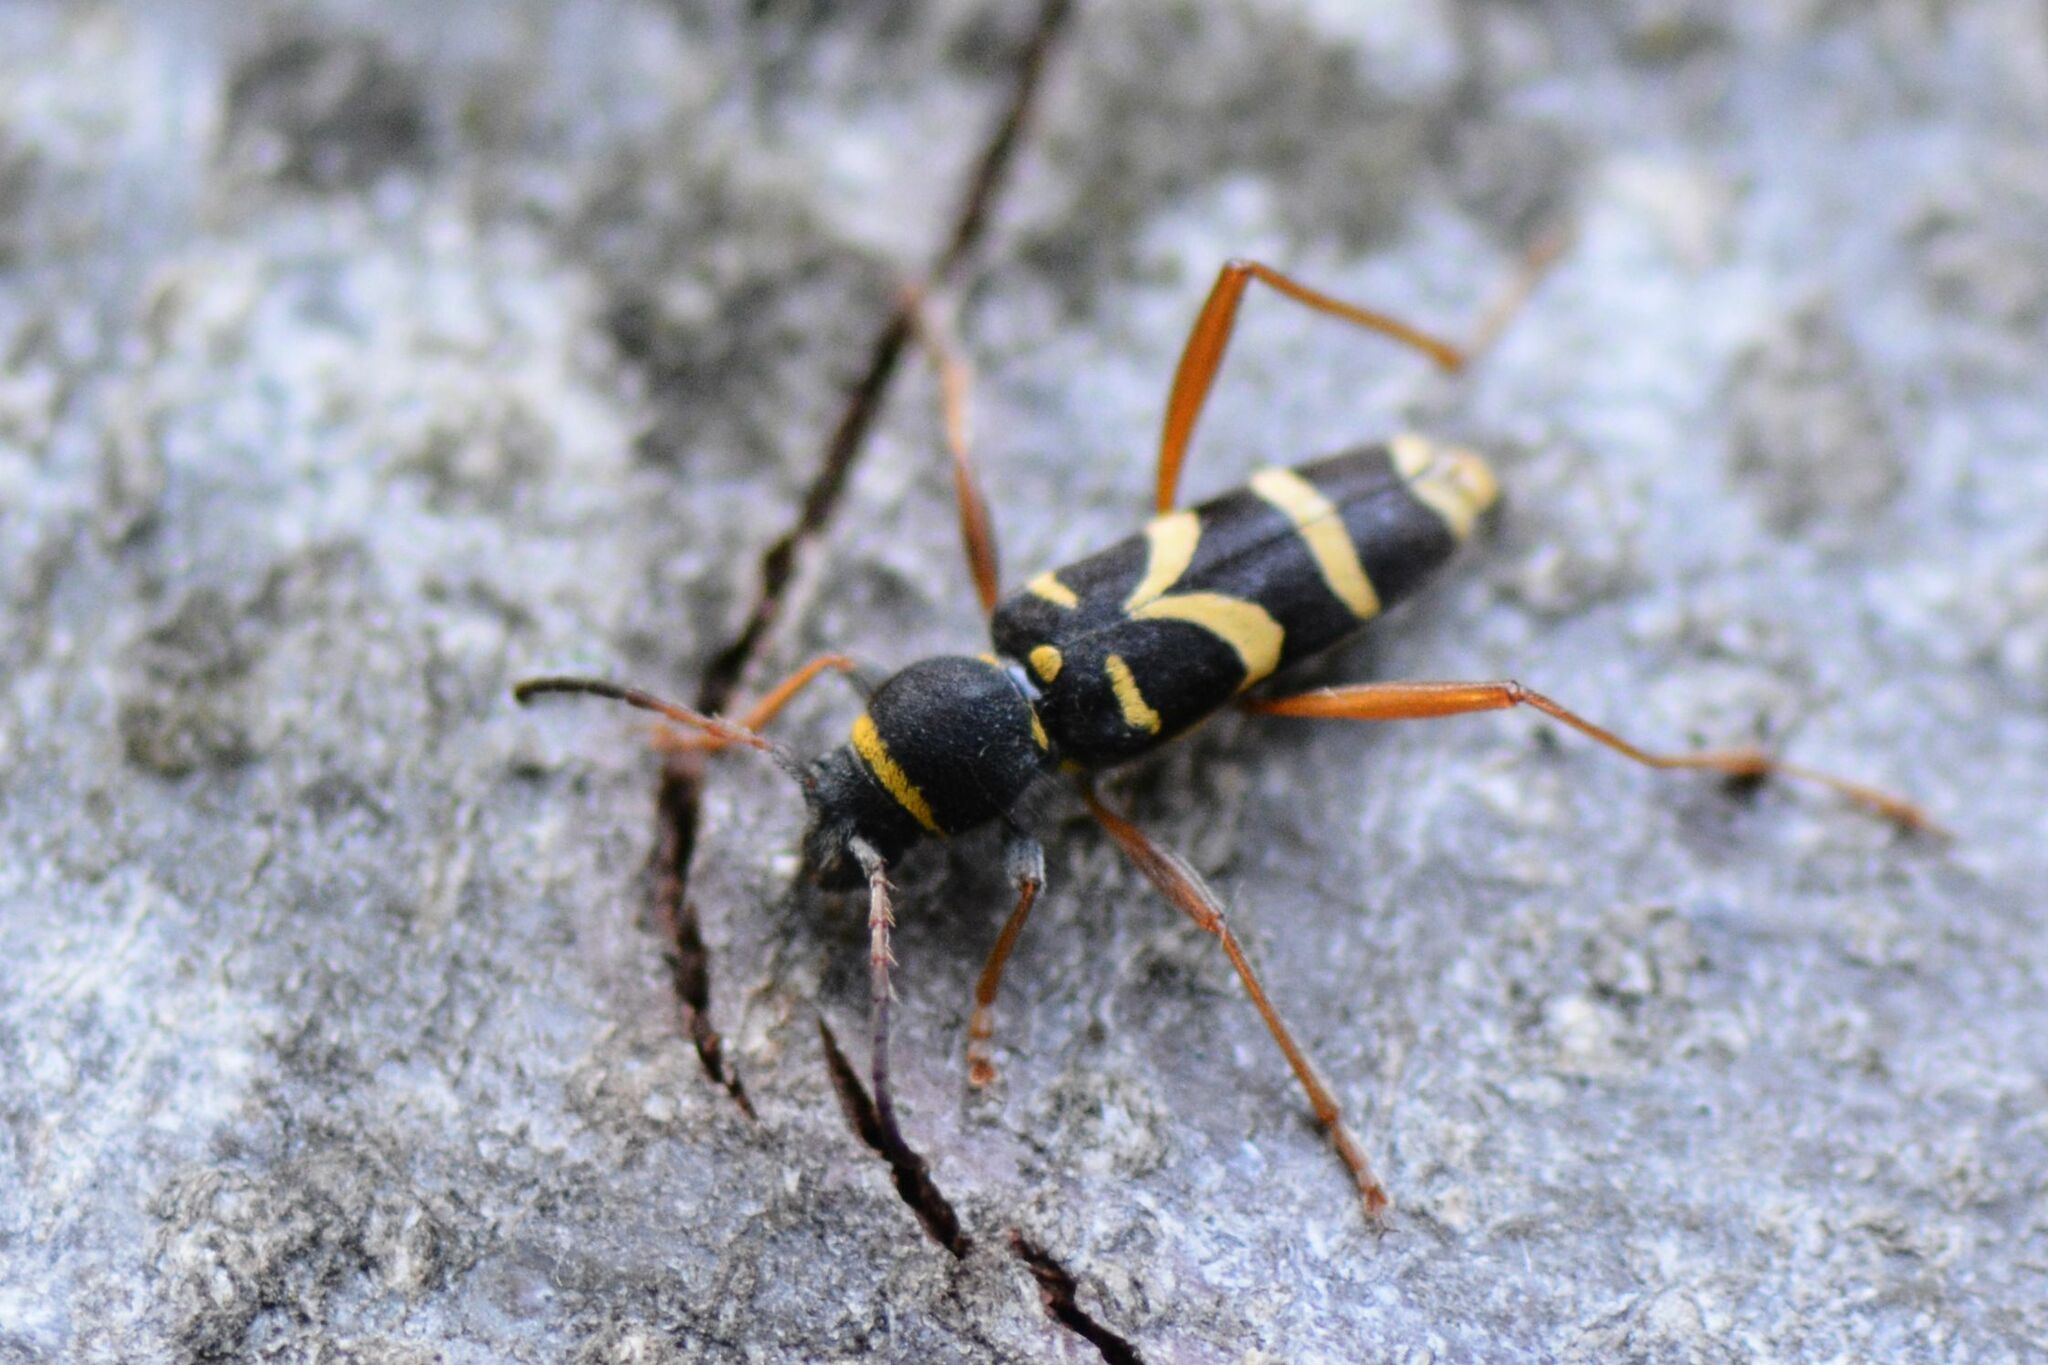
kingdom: Animalia
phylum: Arthropoda
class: Insecta
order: Coleoptera
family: Cerambycidae
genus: Clytus
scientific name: Clytus arietis
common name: Wasp beetle
